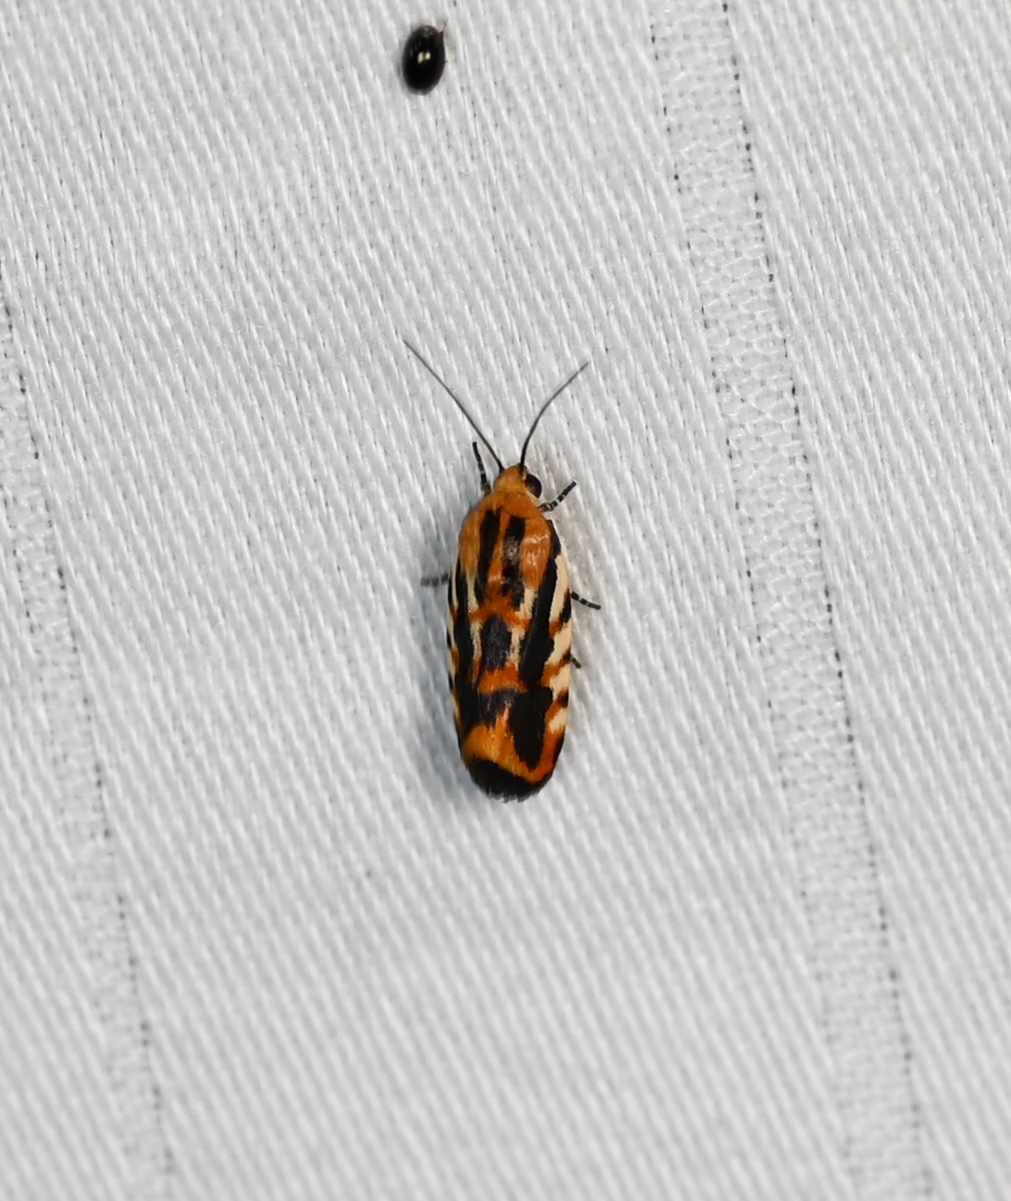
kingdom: Animalia
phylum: Arthropoda
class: Insecta
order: Lepidoptera
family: Noctuidae
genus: Acontia
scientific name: Acontia leo
